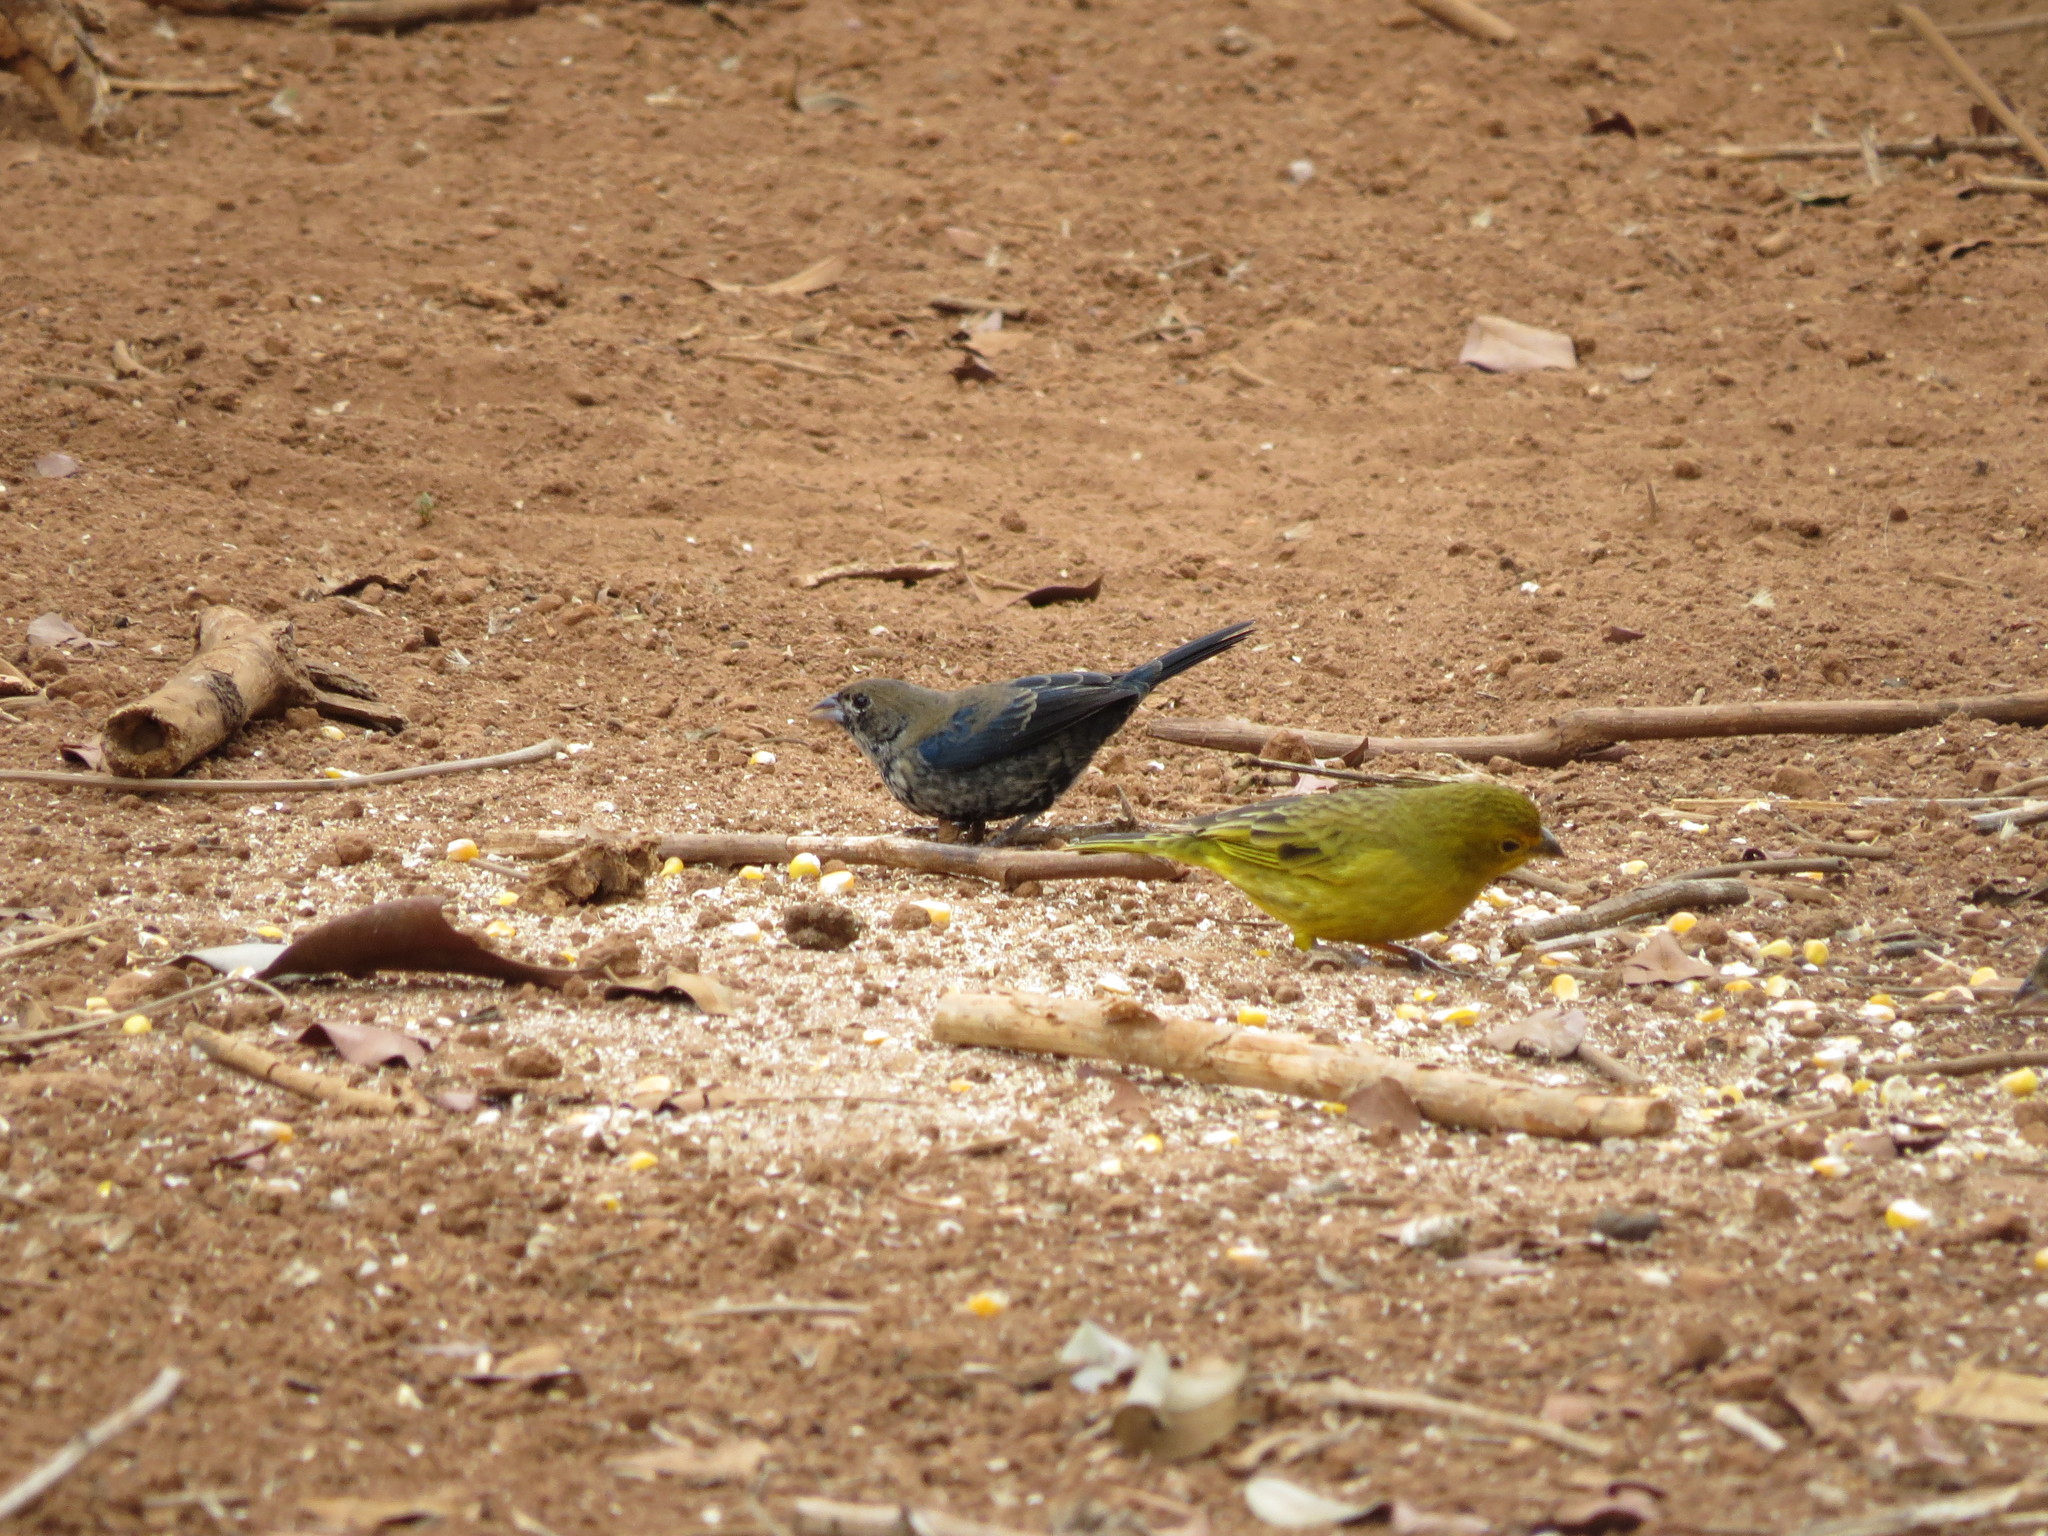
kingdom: Animalia
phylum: Chordata
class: Aves
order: Passeriformes
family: Thraupidae
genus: Volatinia
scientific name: Volatinia jacarina
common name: Blue-black grassquit
